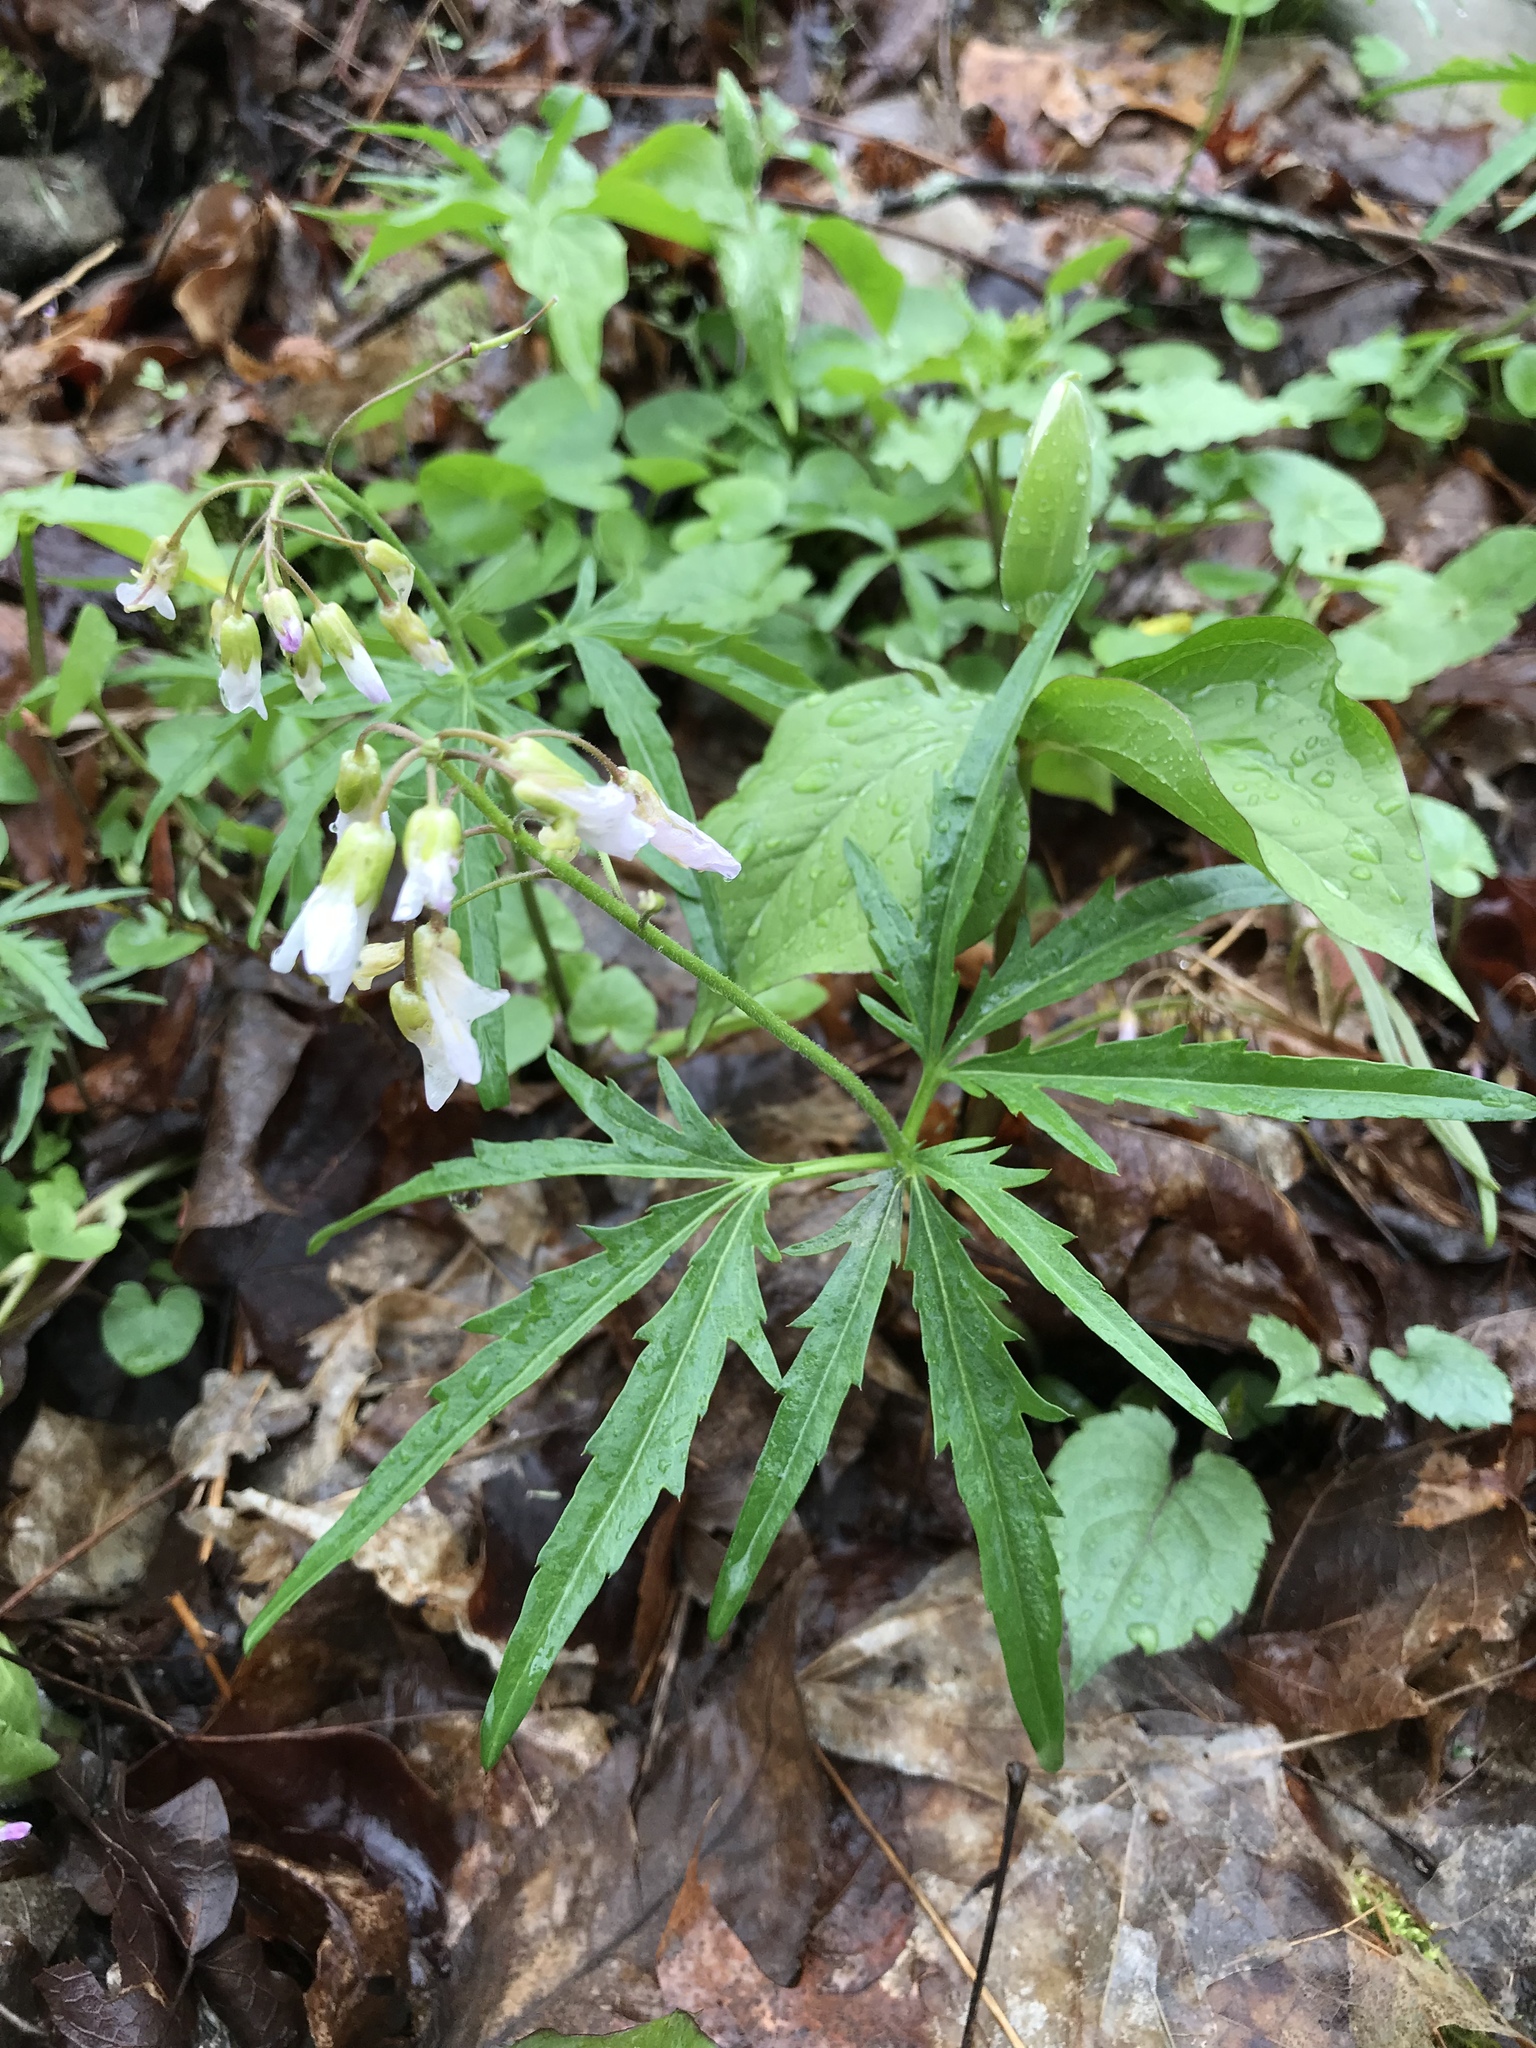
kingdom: Plantae
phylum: Tracheophyta
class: Magnoliopsida
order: Brassicales
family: Brassicaceae
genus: Cardamine
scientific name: Cardamine concatenata
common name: Cut-leaf toothcup
